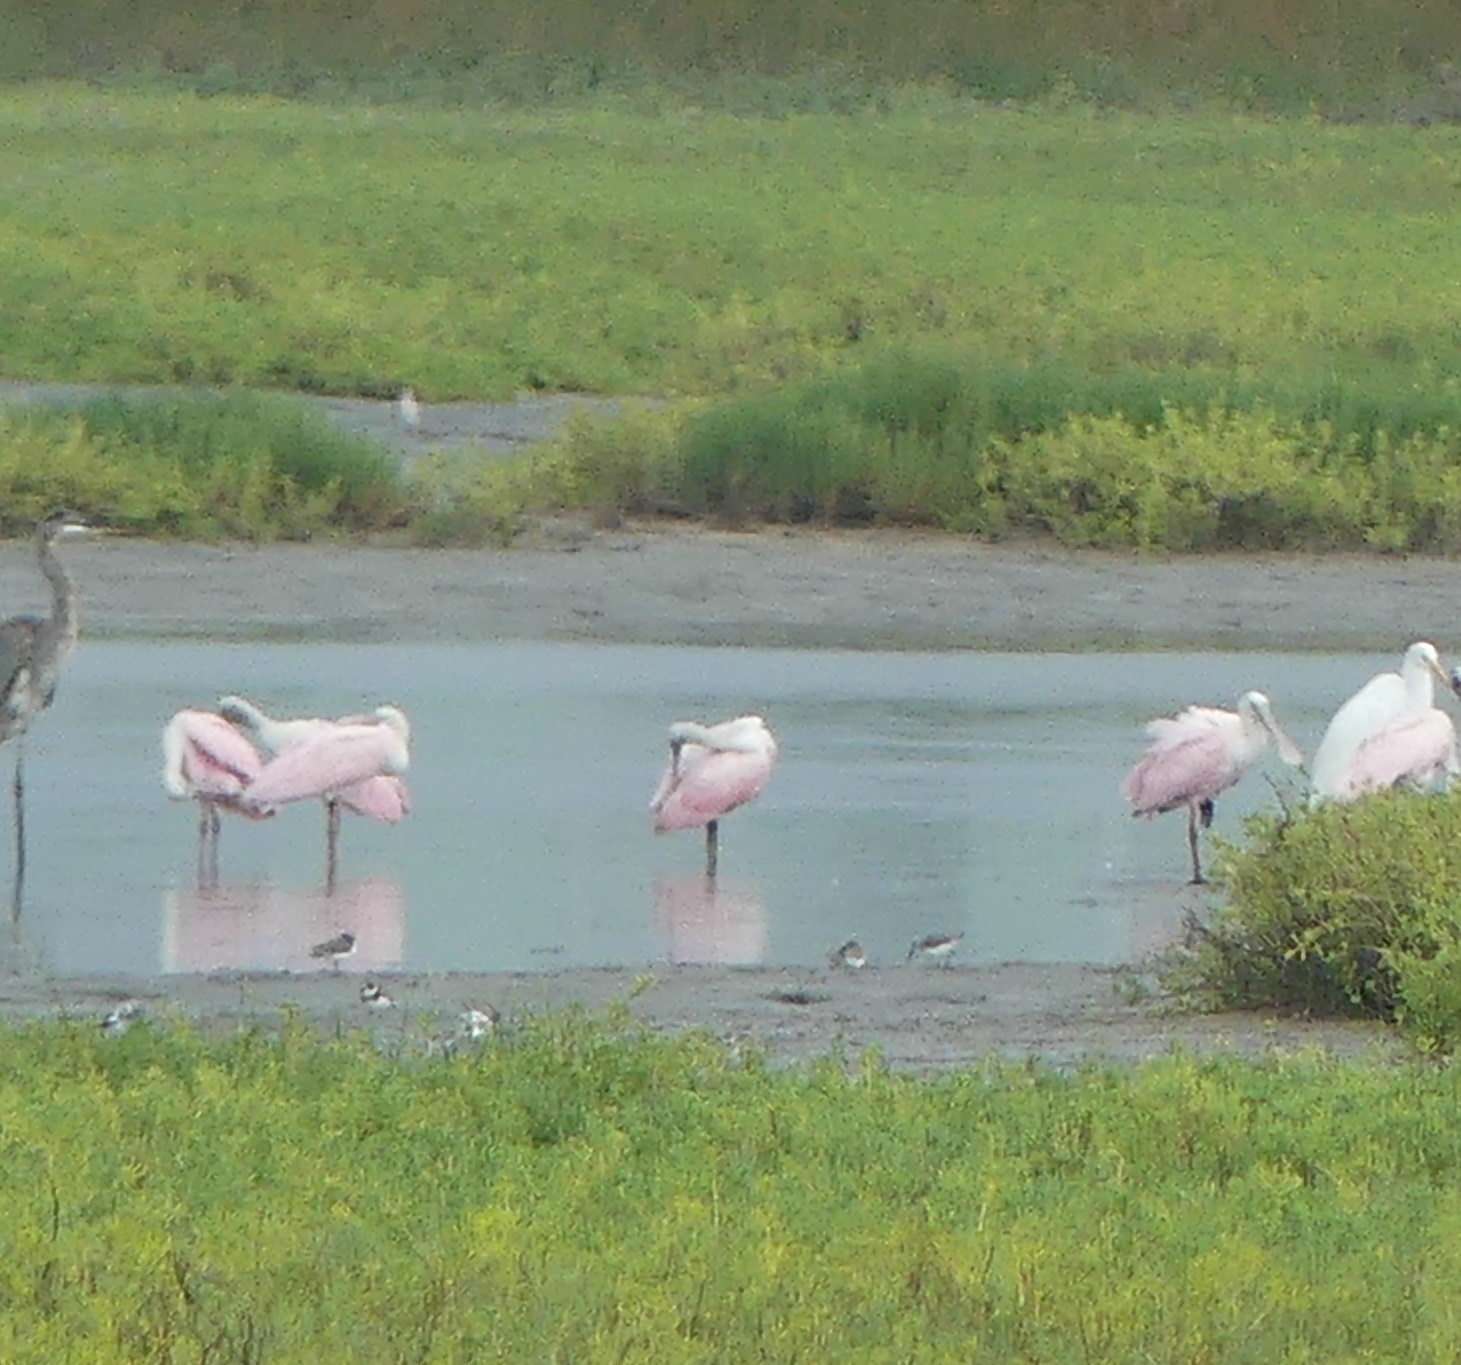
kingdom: Animalia
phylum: Chordata
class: Aves
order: Pelecaniformes
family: Threskiornithidae
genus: Platalea
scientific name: Platalea ajaja
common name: Roseate spoonbill
